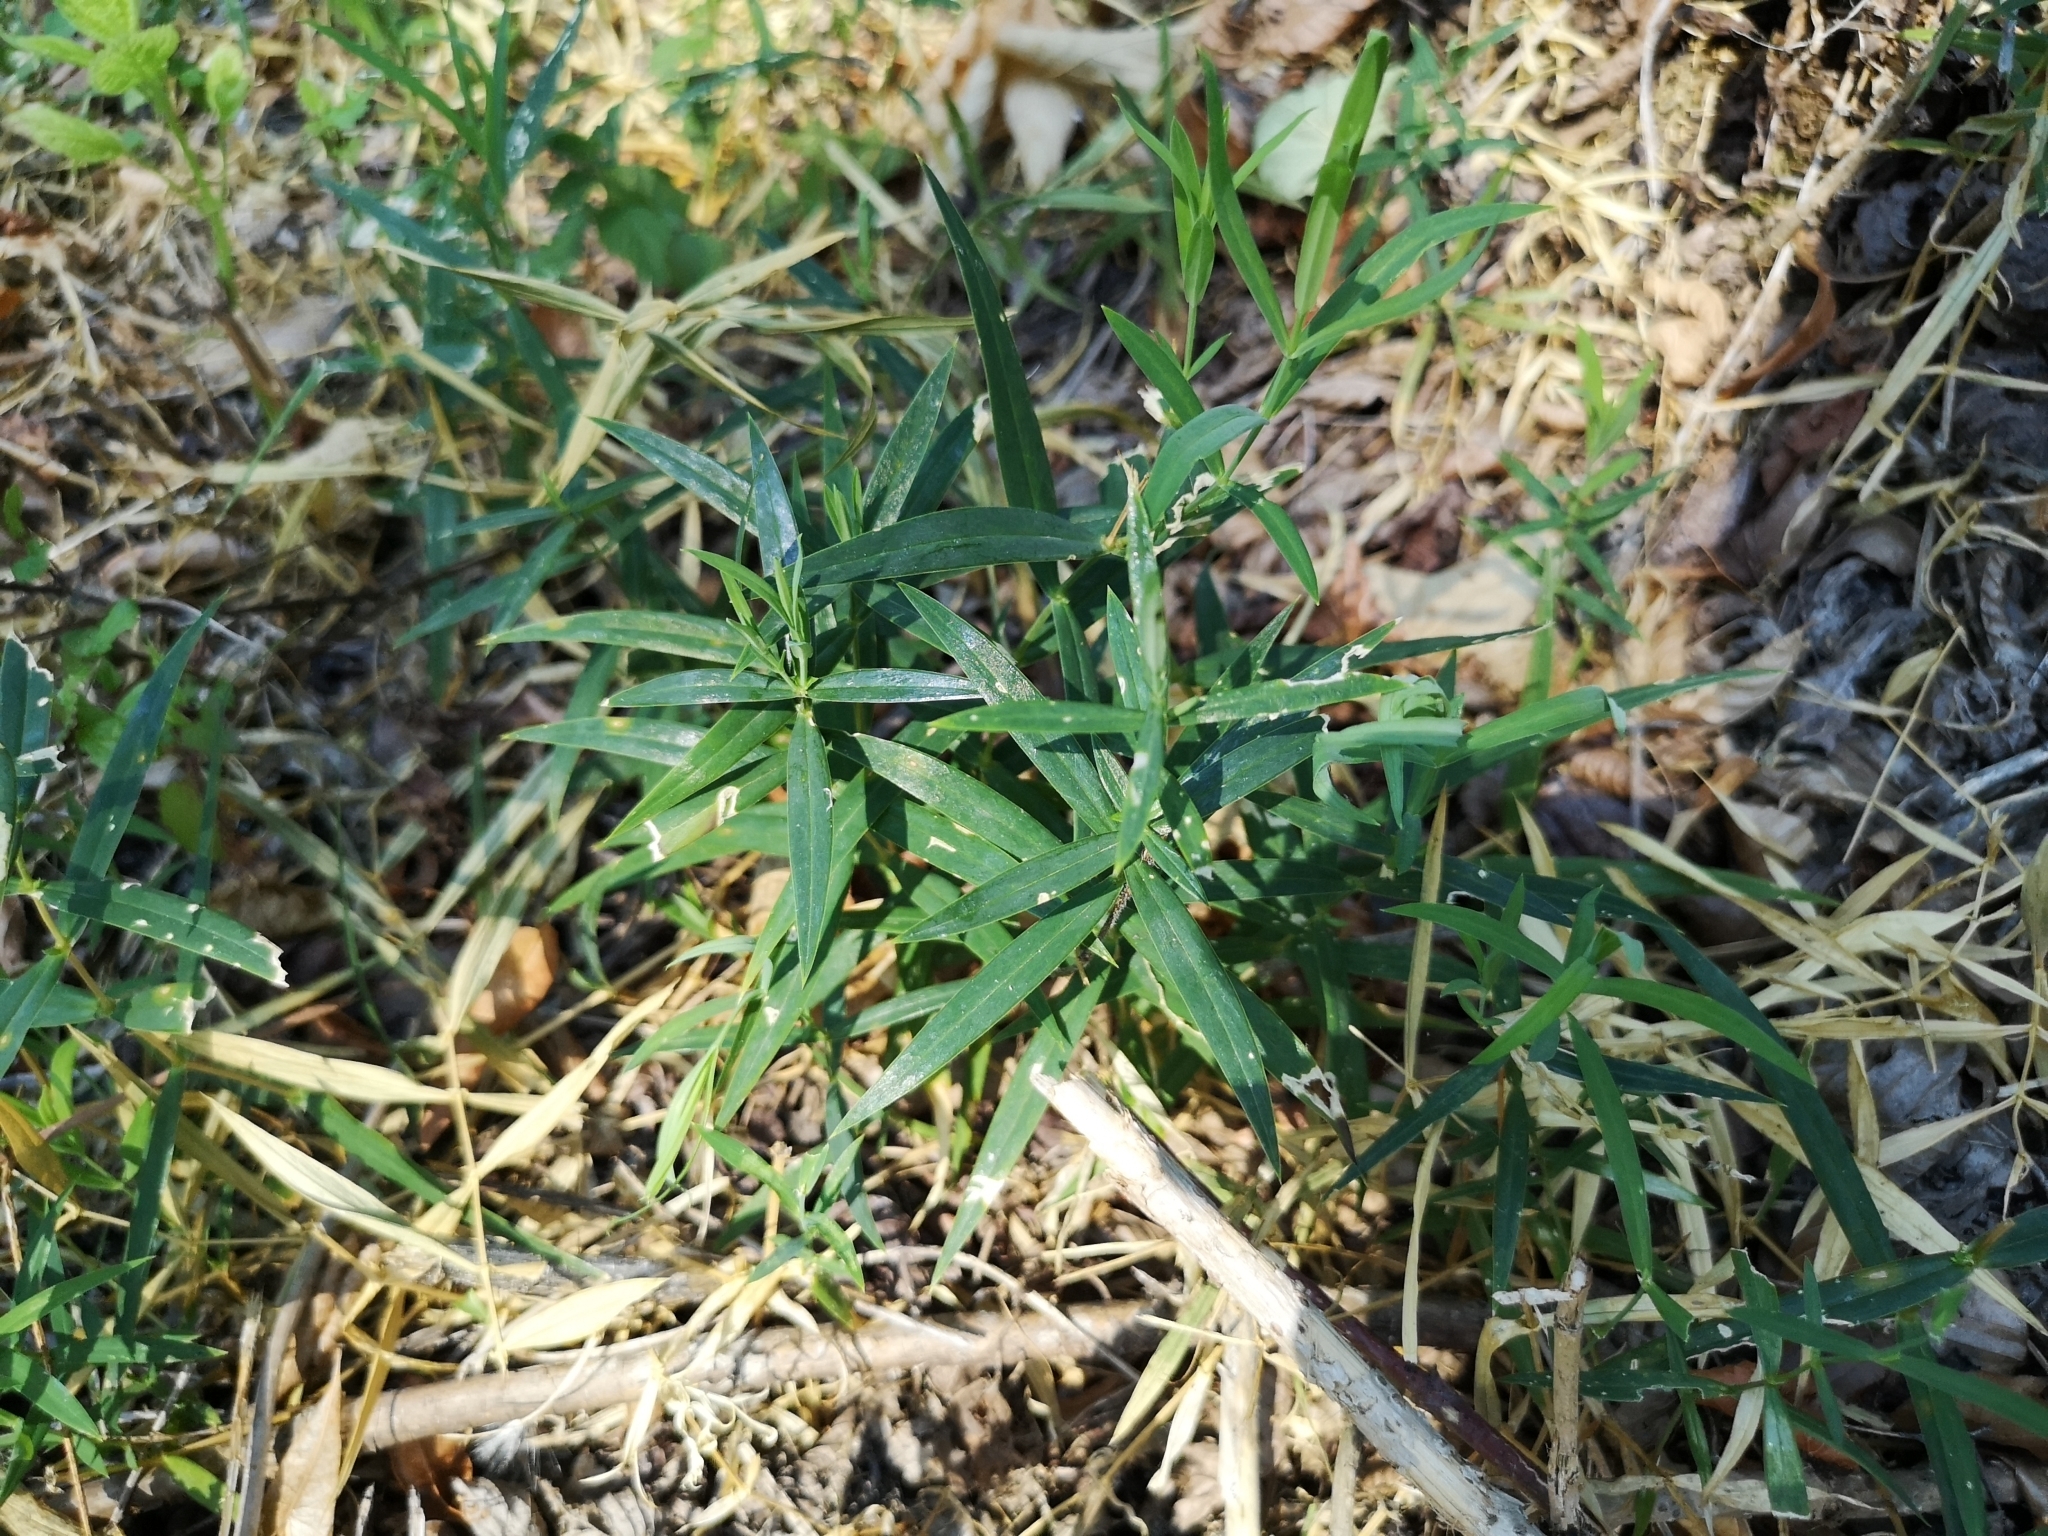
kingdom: Plantae
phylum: Tracheophyta
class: Magnoliopsida
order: Caryophyllales
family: Caryophyllaceae
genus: Rabelera
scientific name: Rabelera holostea
